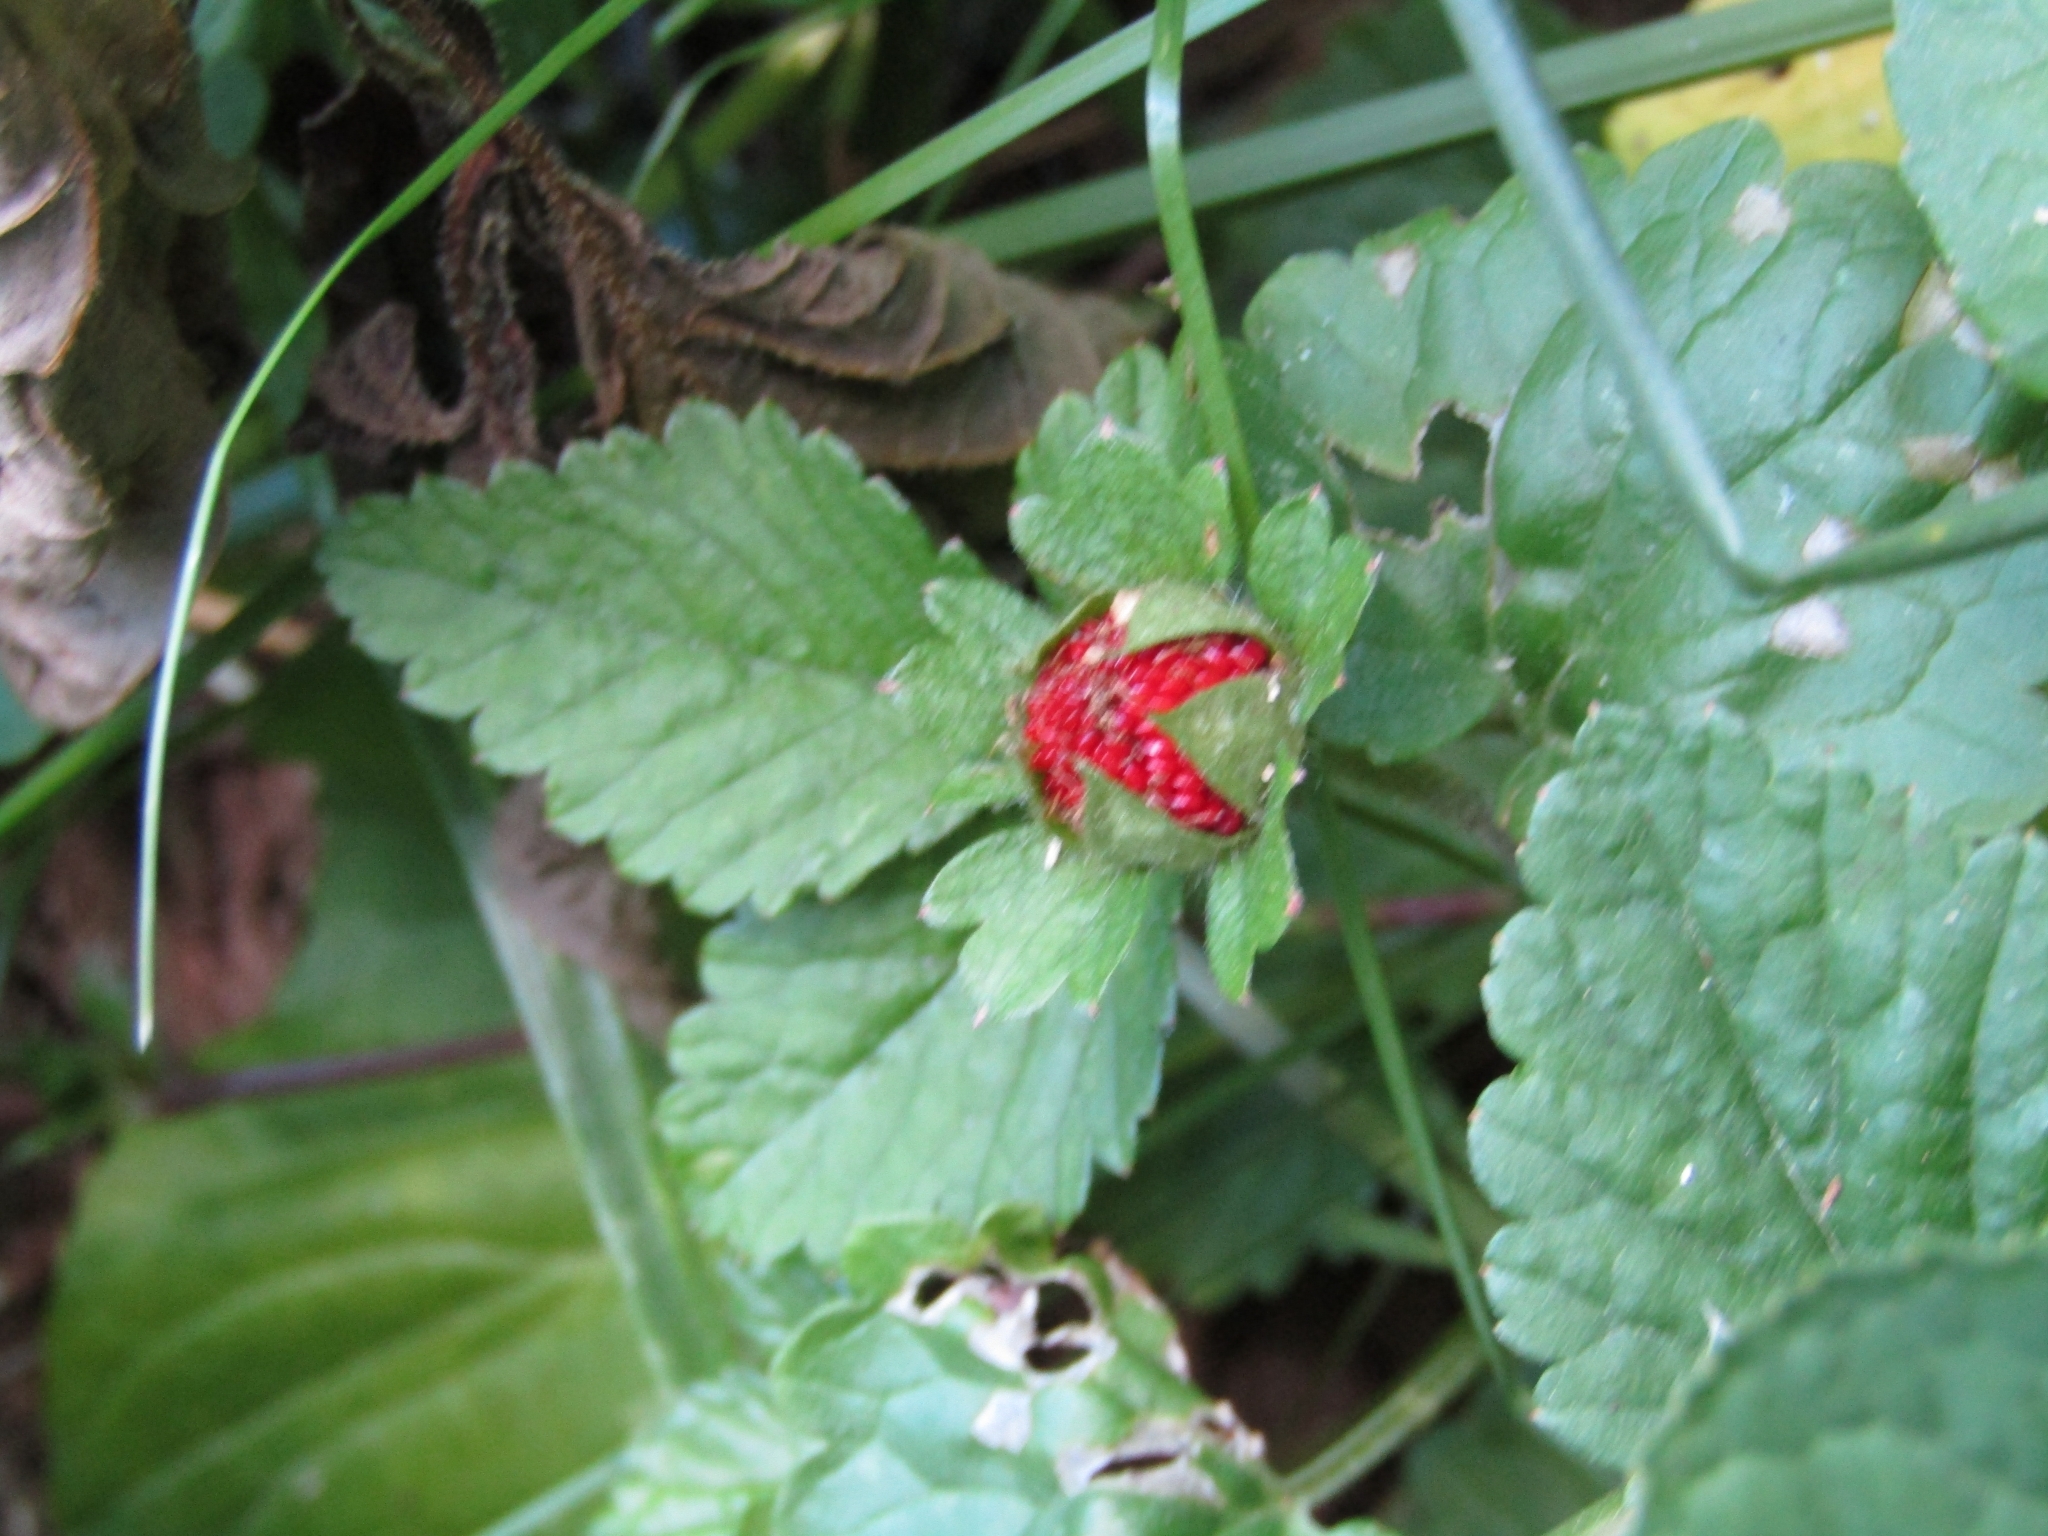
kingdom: Plantae
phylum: Tracheophyta
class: Magnoliopsida
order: Rosales
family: Rosaceae
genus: Potentilla
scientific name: Potentilla indica
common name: Yellow-flowered strawberry
